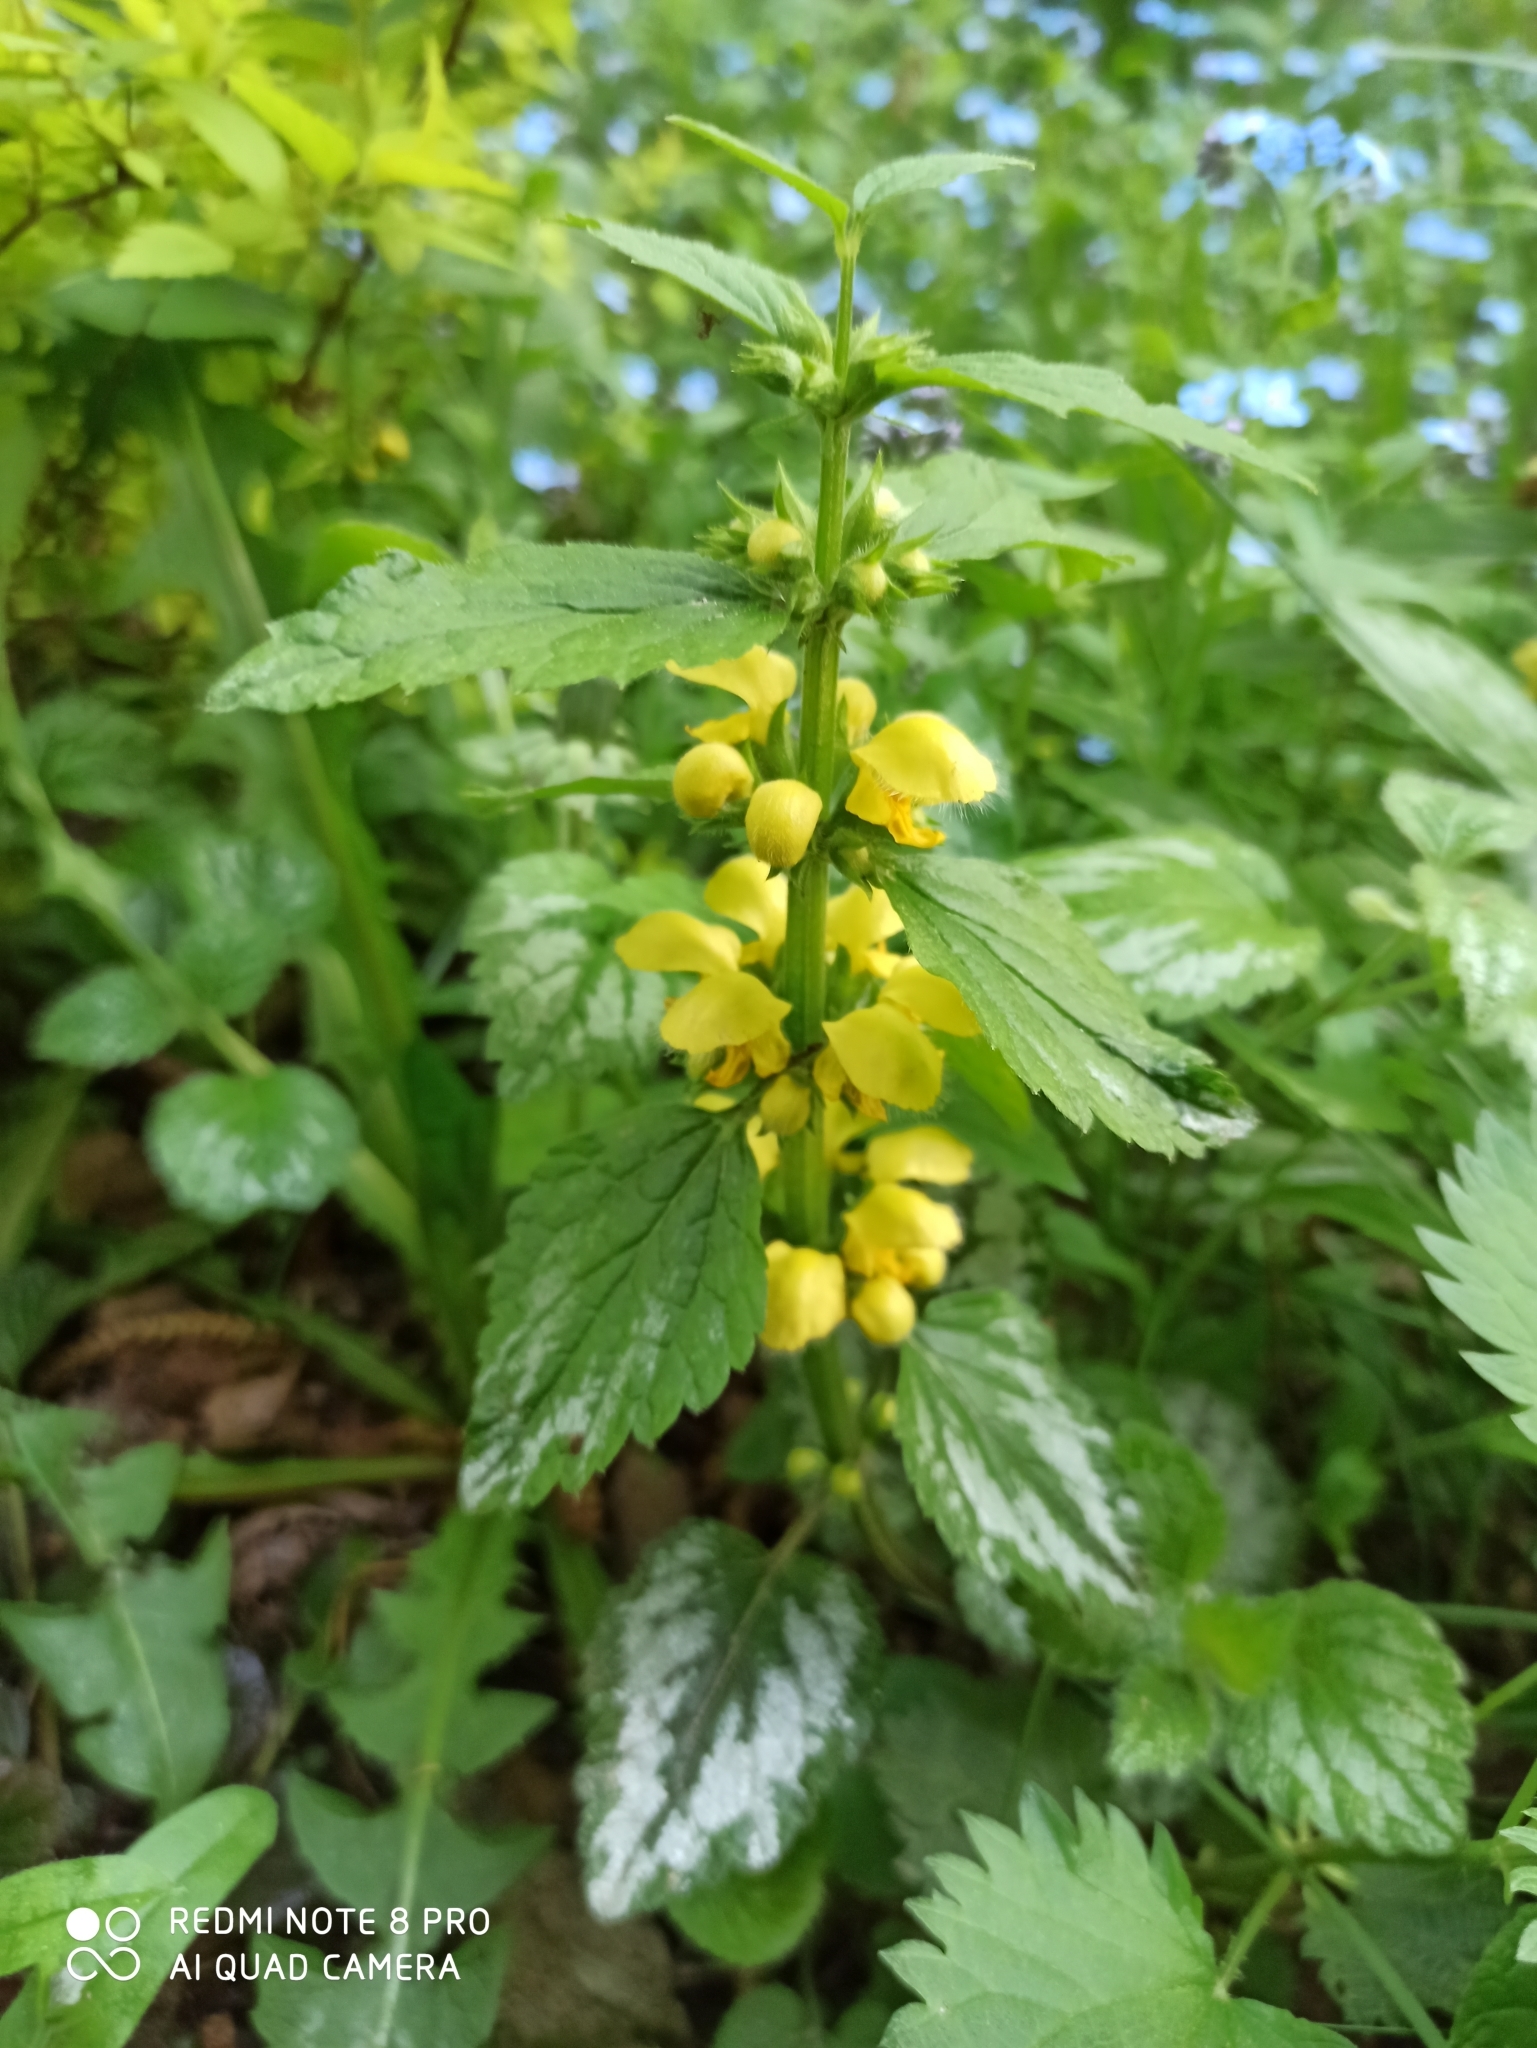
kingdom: Plantae
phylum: Tracheophyta
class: Magnoliopsida
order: Lamiales
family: Lamiaceae
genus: Lamium
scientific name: Lamium galeobdolon
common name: Yellow archangel
